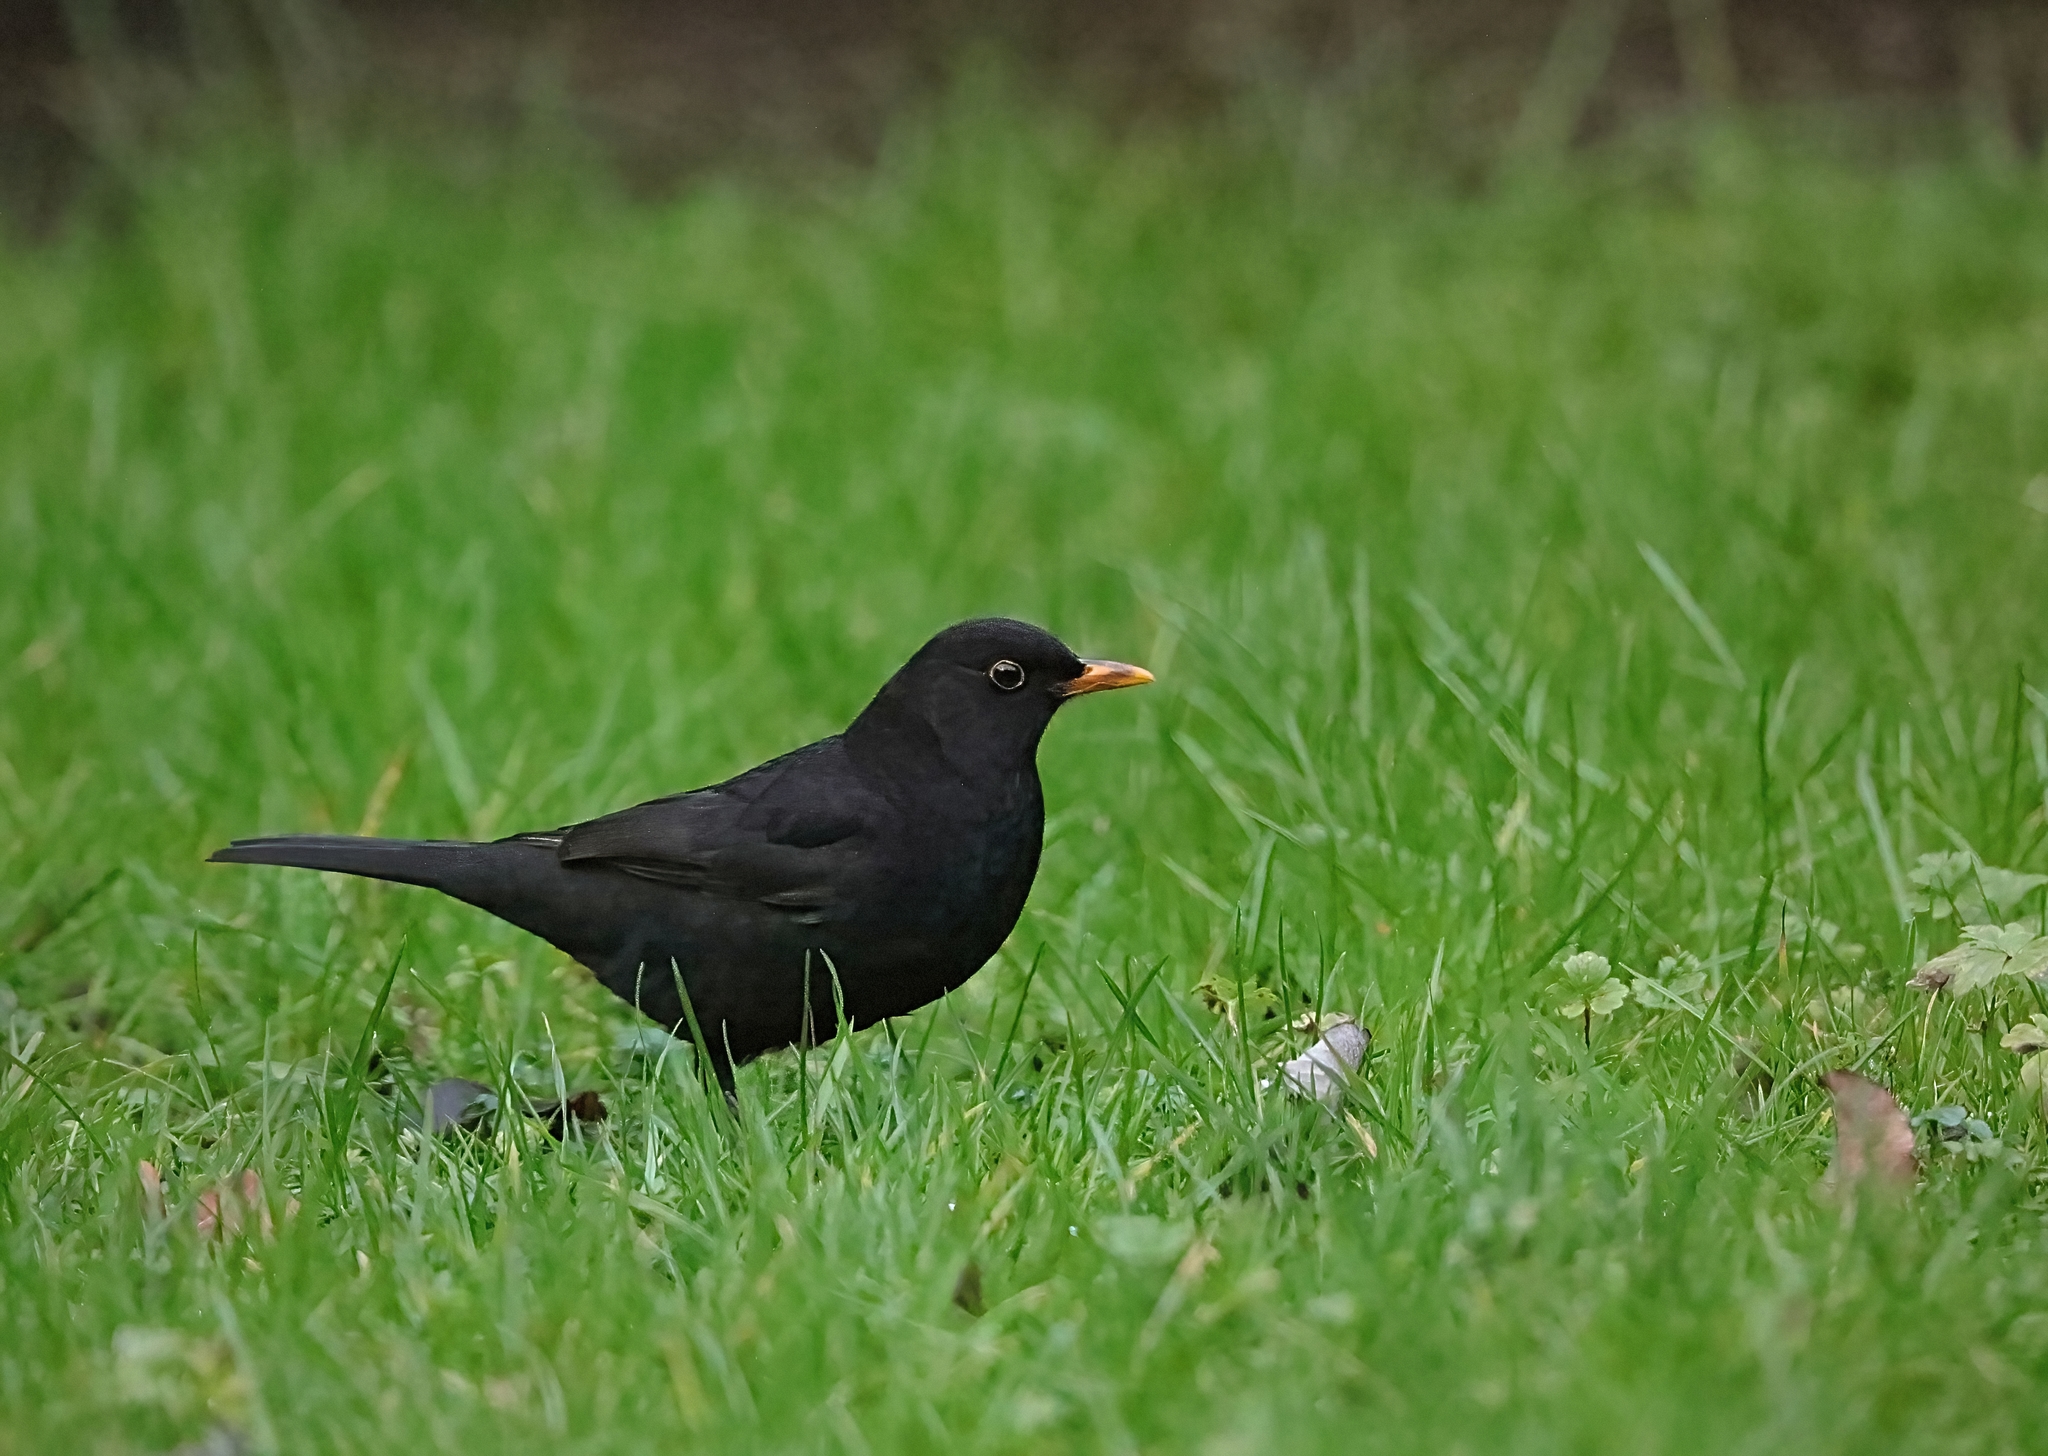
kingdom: Animalia
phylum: Chordata
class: Aves
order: Passeriformes
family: Turdidae
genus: Turdus
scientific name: Turdus merula
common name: Common blackbird
